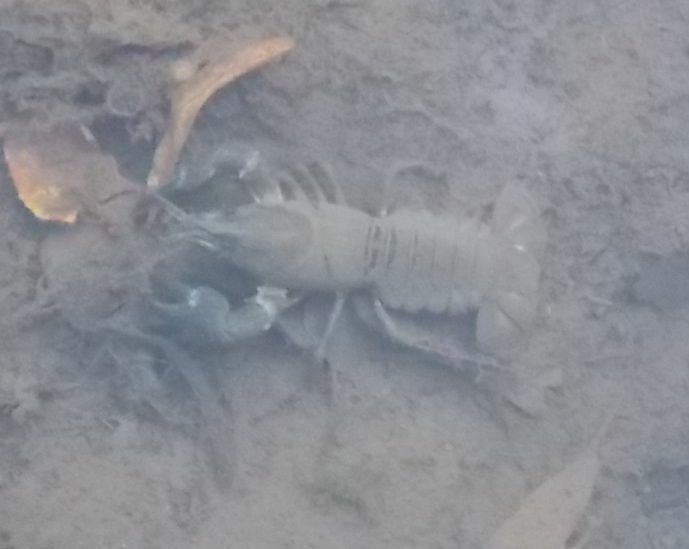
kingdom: Animalia
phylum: Arthropoda
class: Malacostraca
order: Decapoda
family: Astacidae
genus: Pacifastacus
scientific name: Pacifastacus leniusculus
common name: Signal crayfish
